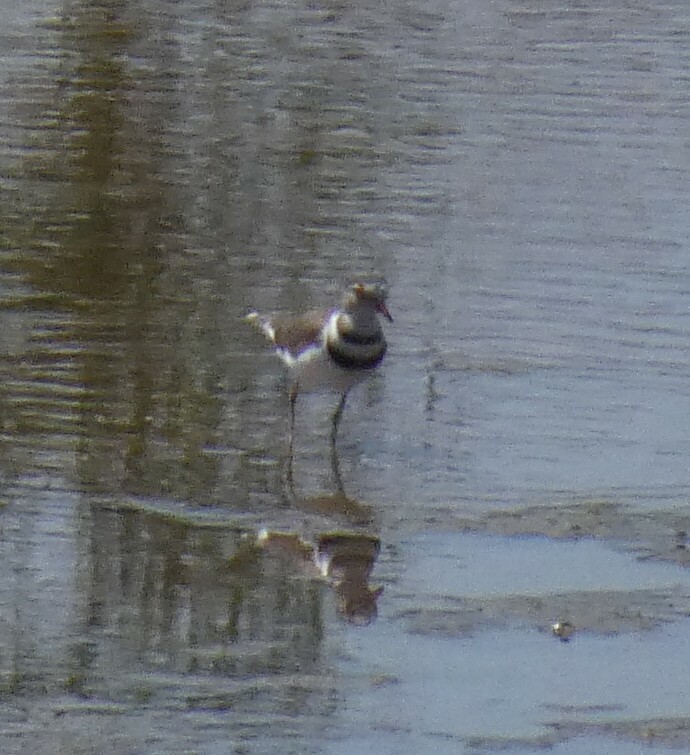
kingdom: Animalia
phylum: Chordata
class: Aves
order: Charadriiformes
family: Charadriidae
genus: Charadrius
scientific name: Charadrius tricollaris
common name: Three-banded plover
